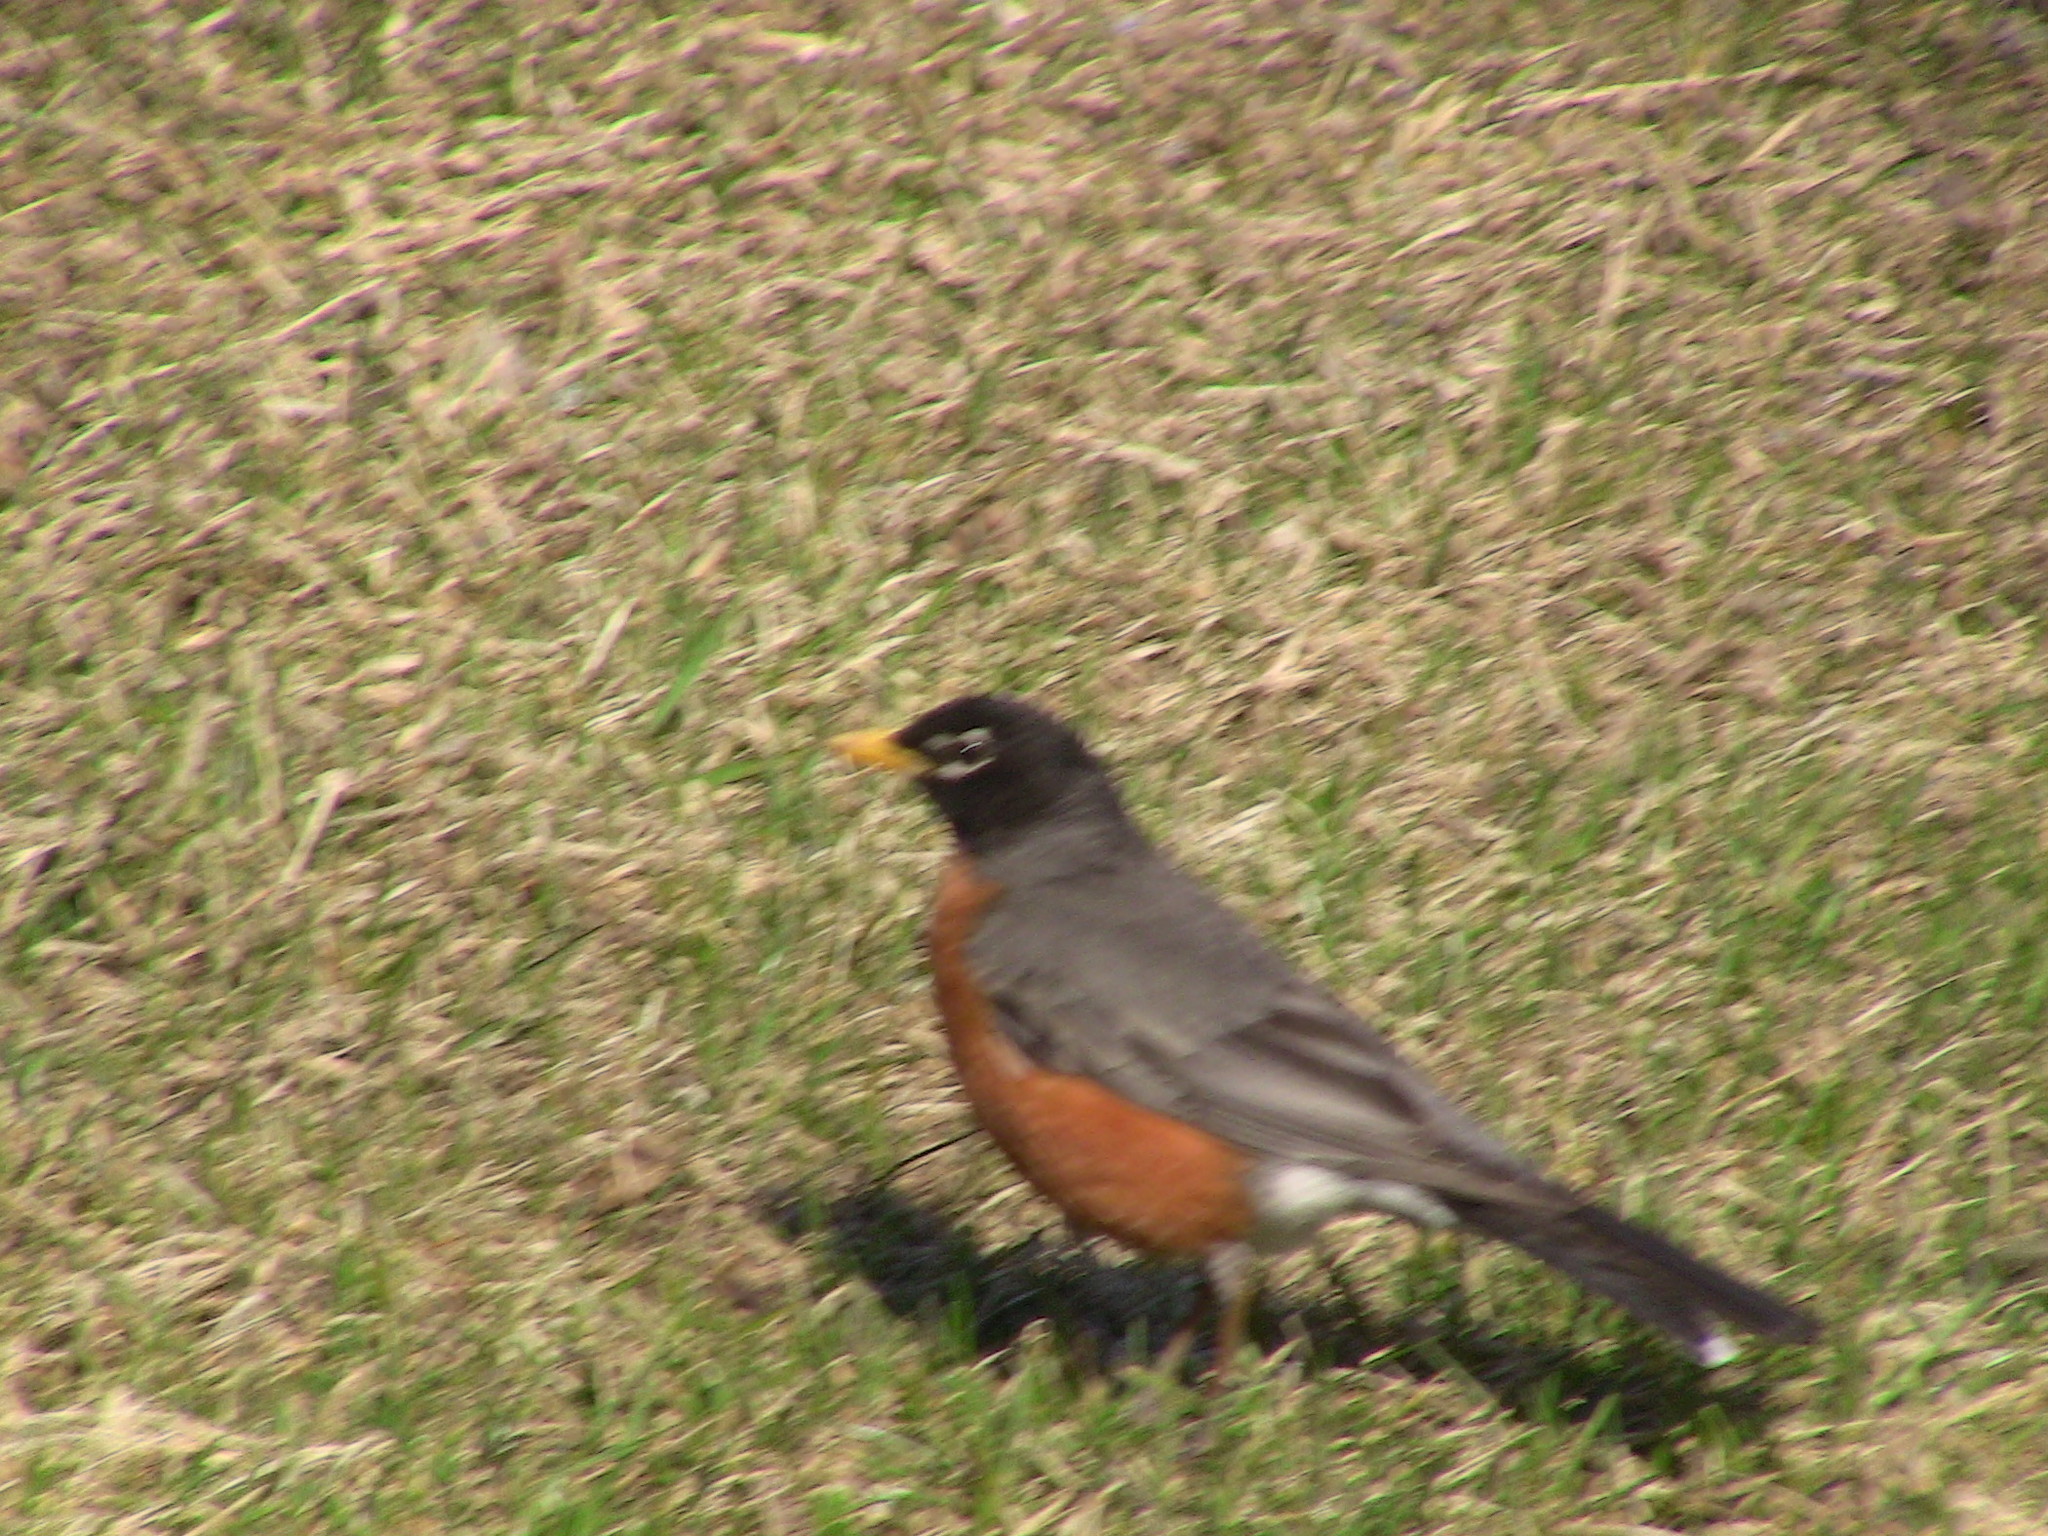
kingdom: Animalia
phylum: Chordata
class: Aves
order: Passeriformes
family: Turdidae
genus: Turdus
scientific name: Turdus migratorius
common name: American robin
